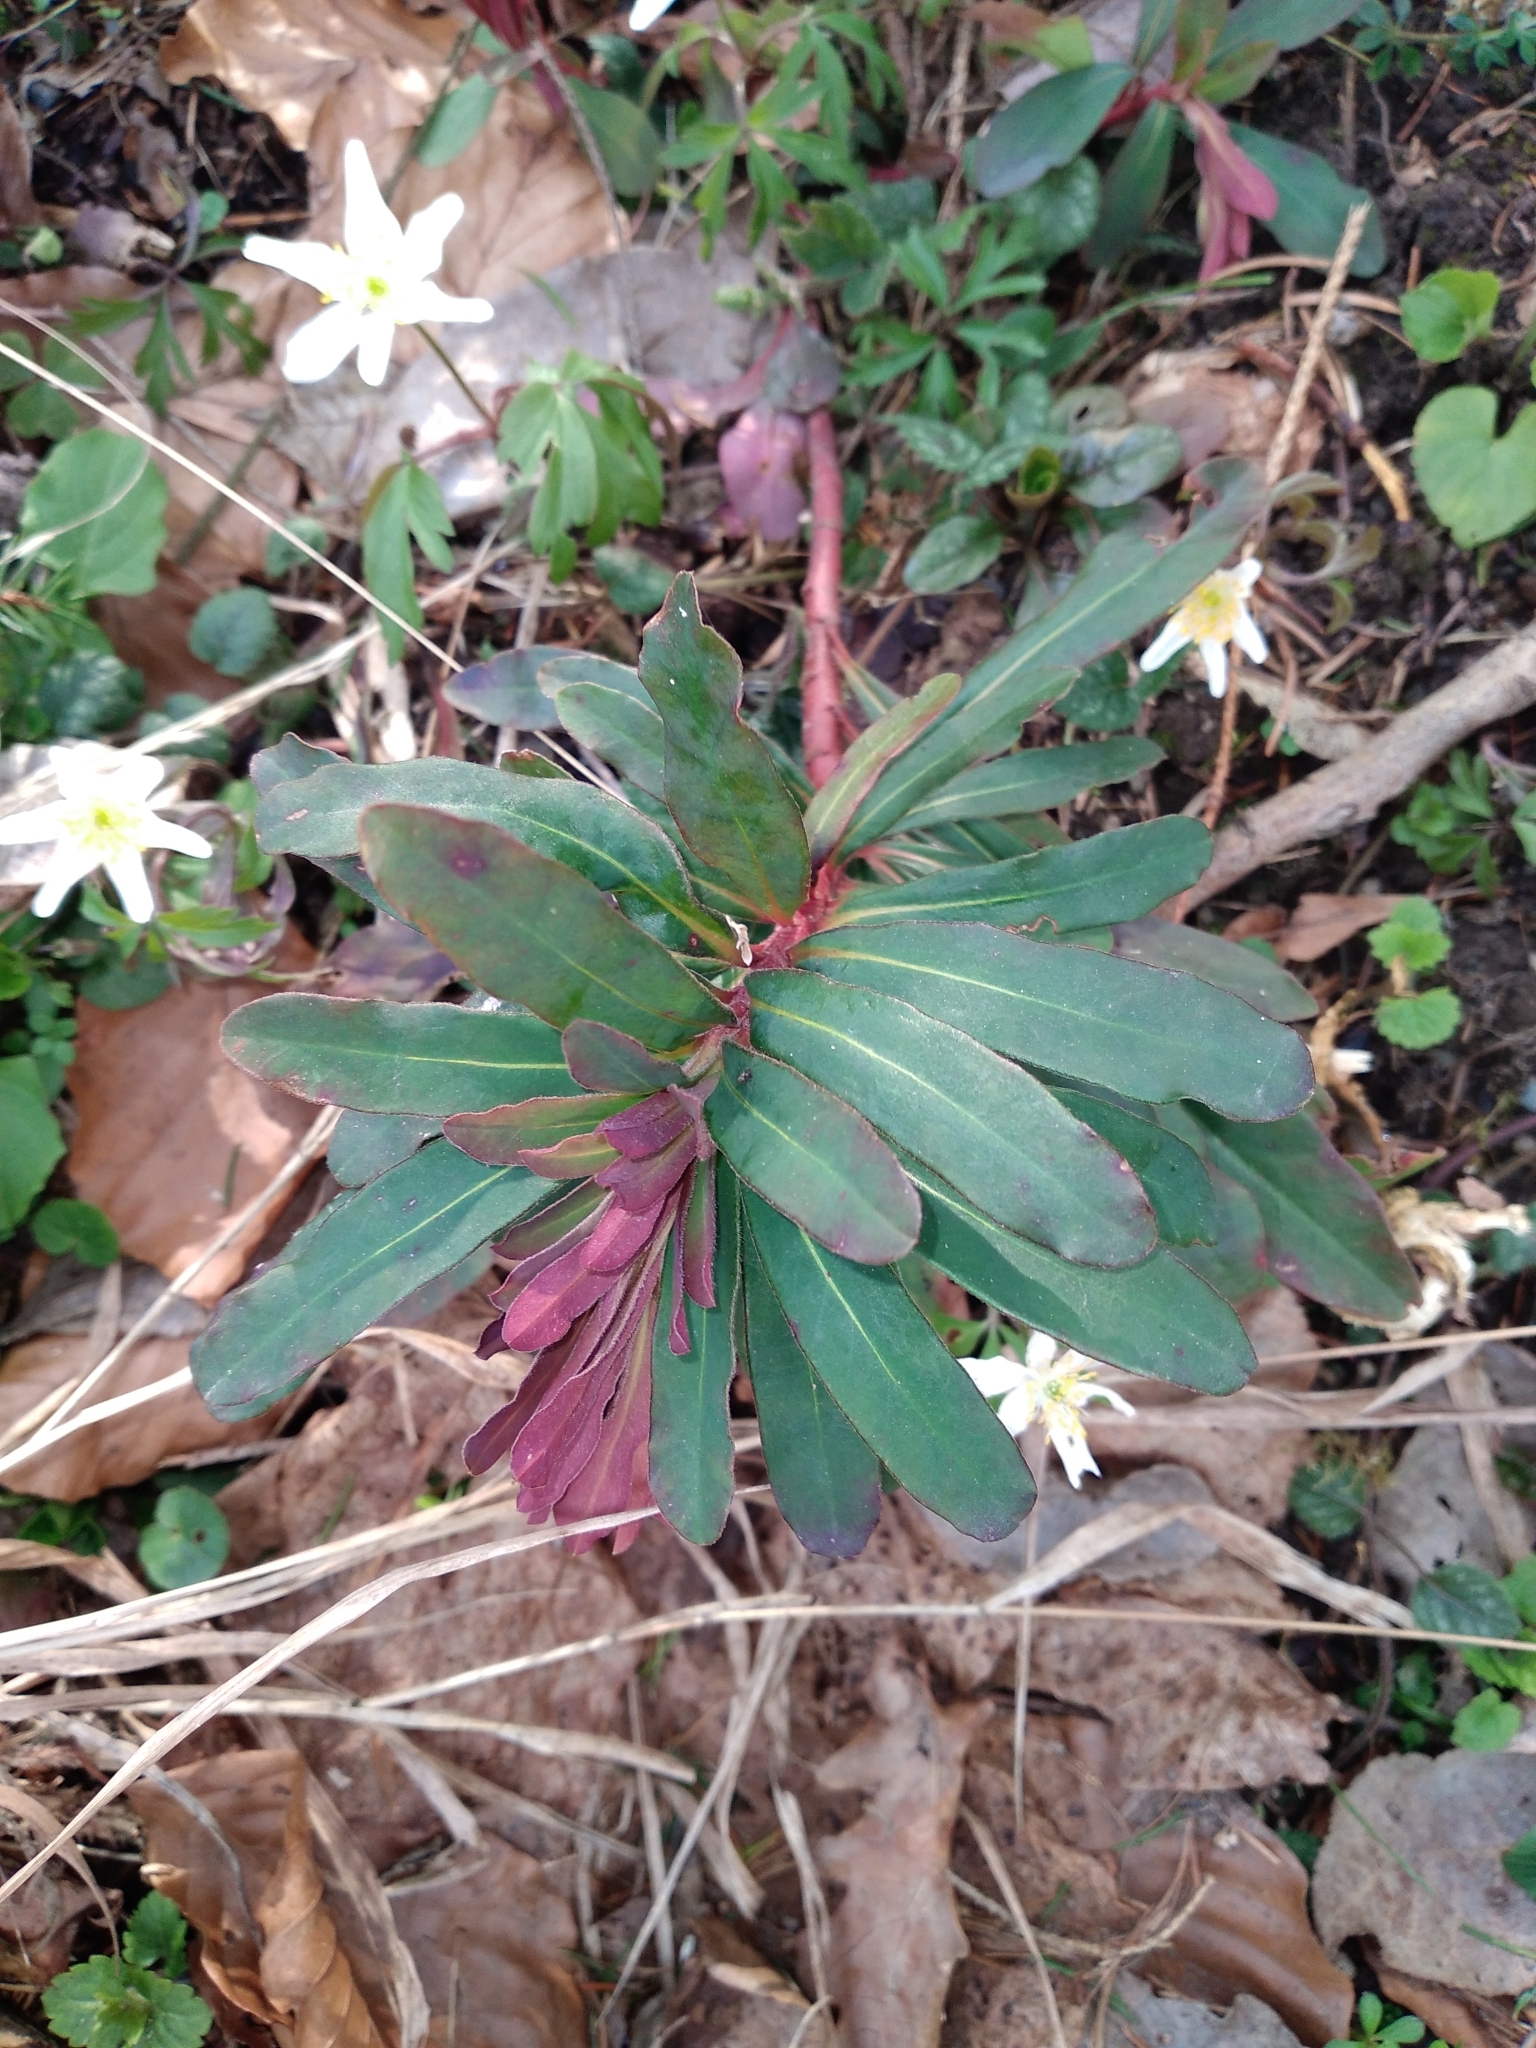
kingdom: Plantae
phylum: Tracheophyta
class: Magnoliopsida
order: Malpighiales
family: Euphorbiaceae
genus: Euphorbia
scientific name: Euphorbia amygdaloides
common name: Wood spurge
